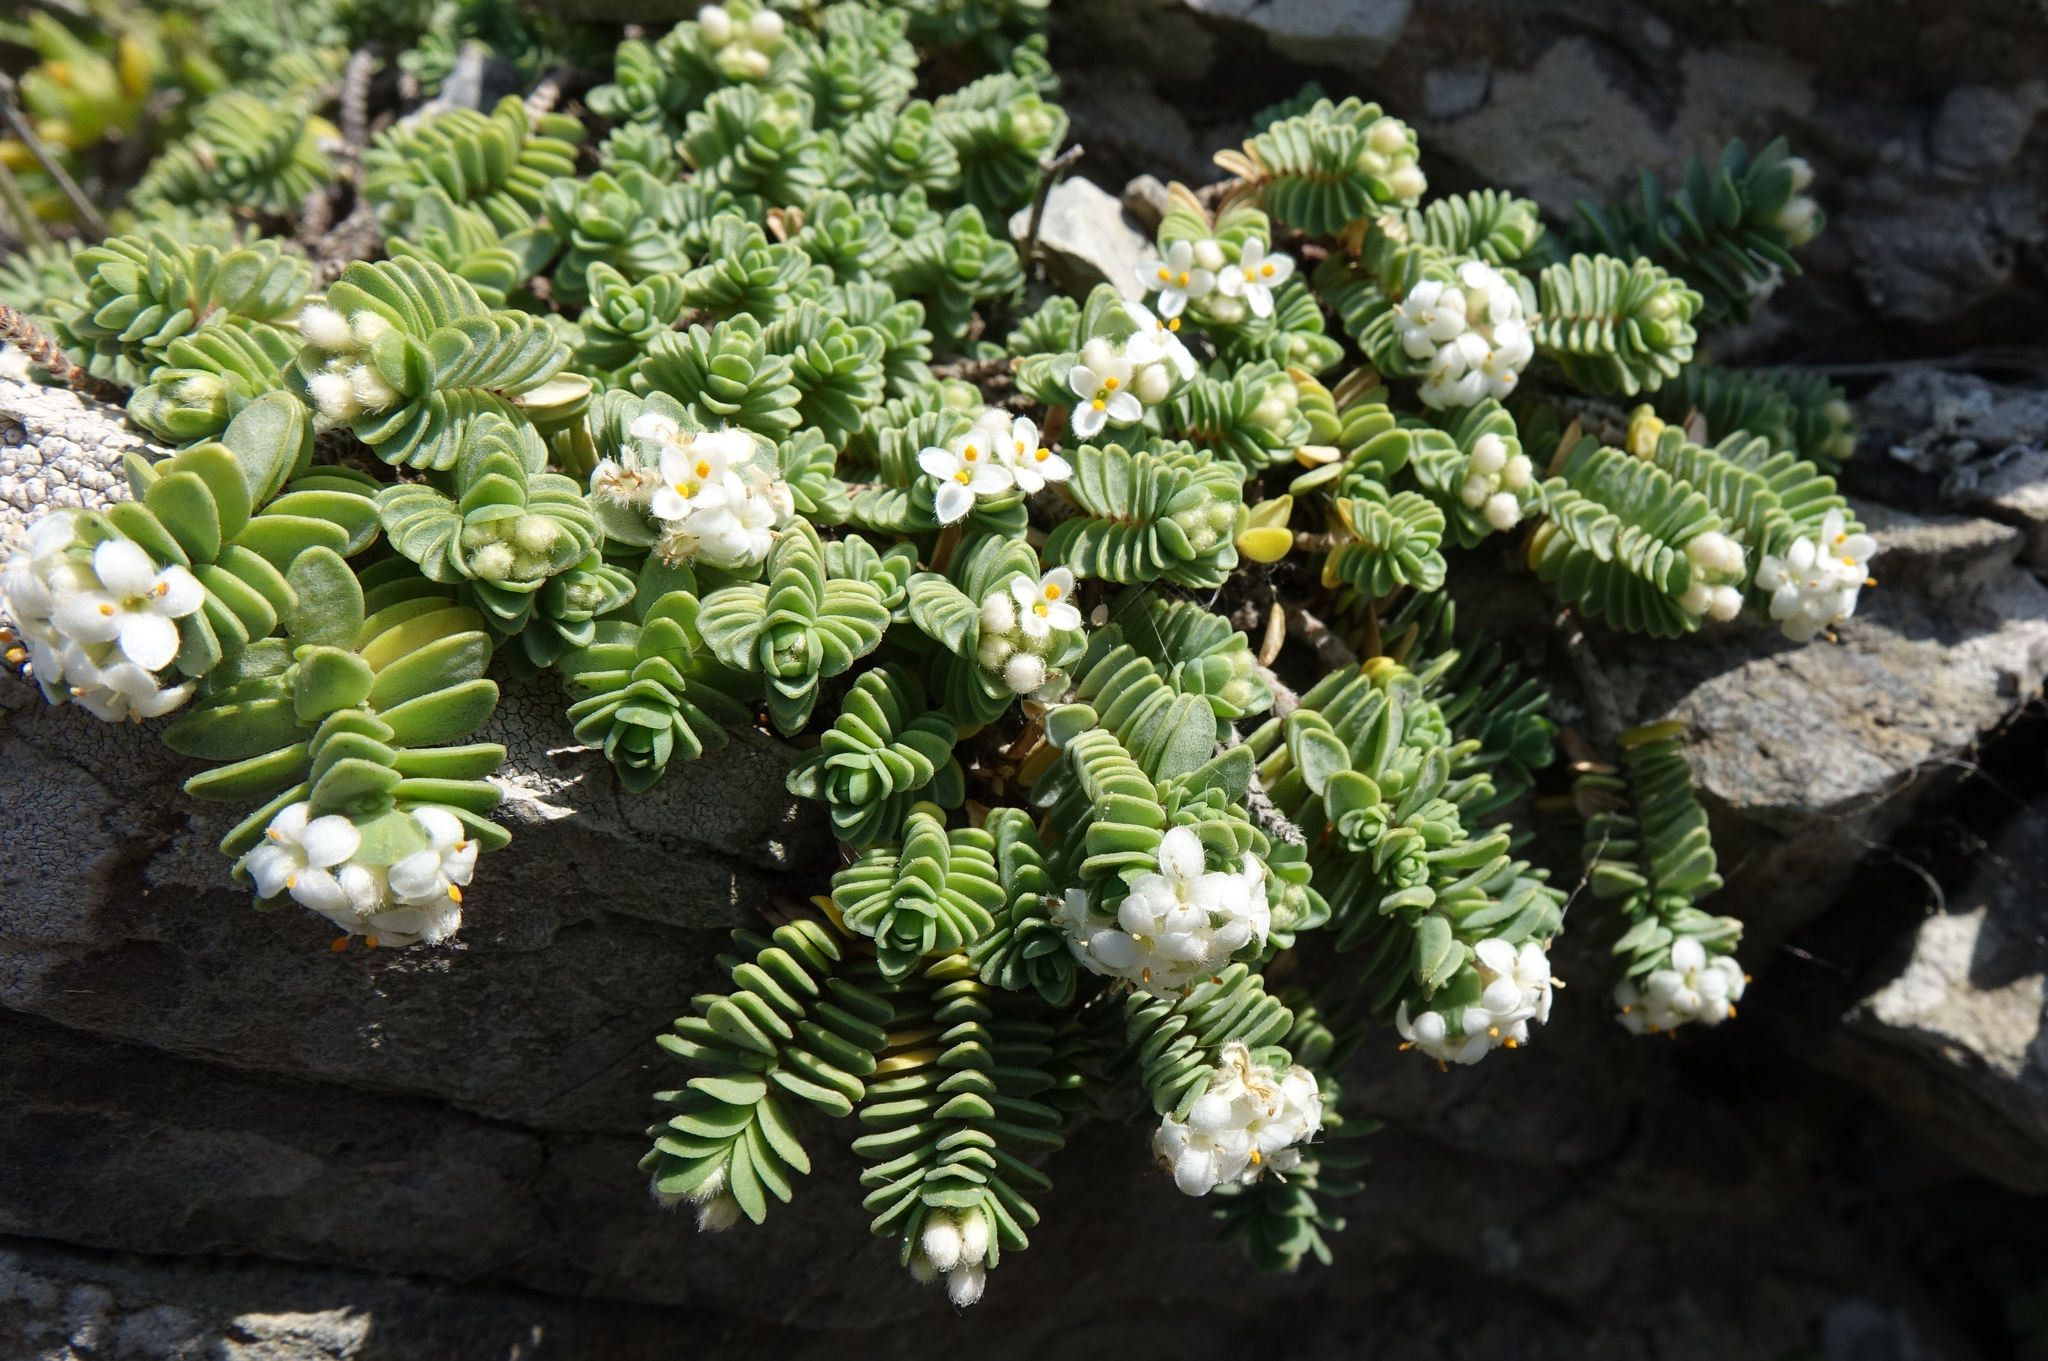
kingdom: Plantae
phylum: Tracheophyta
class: Magnoliopsida
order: Malvales
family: Thymelaeaceae
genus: Pimelea
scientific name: Pimelea carnosa
